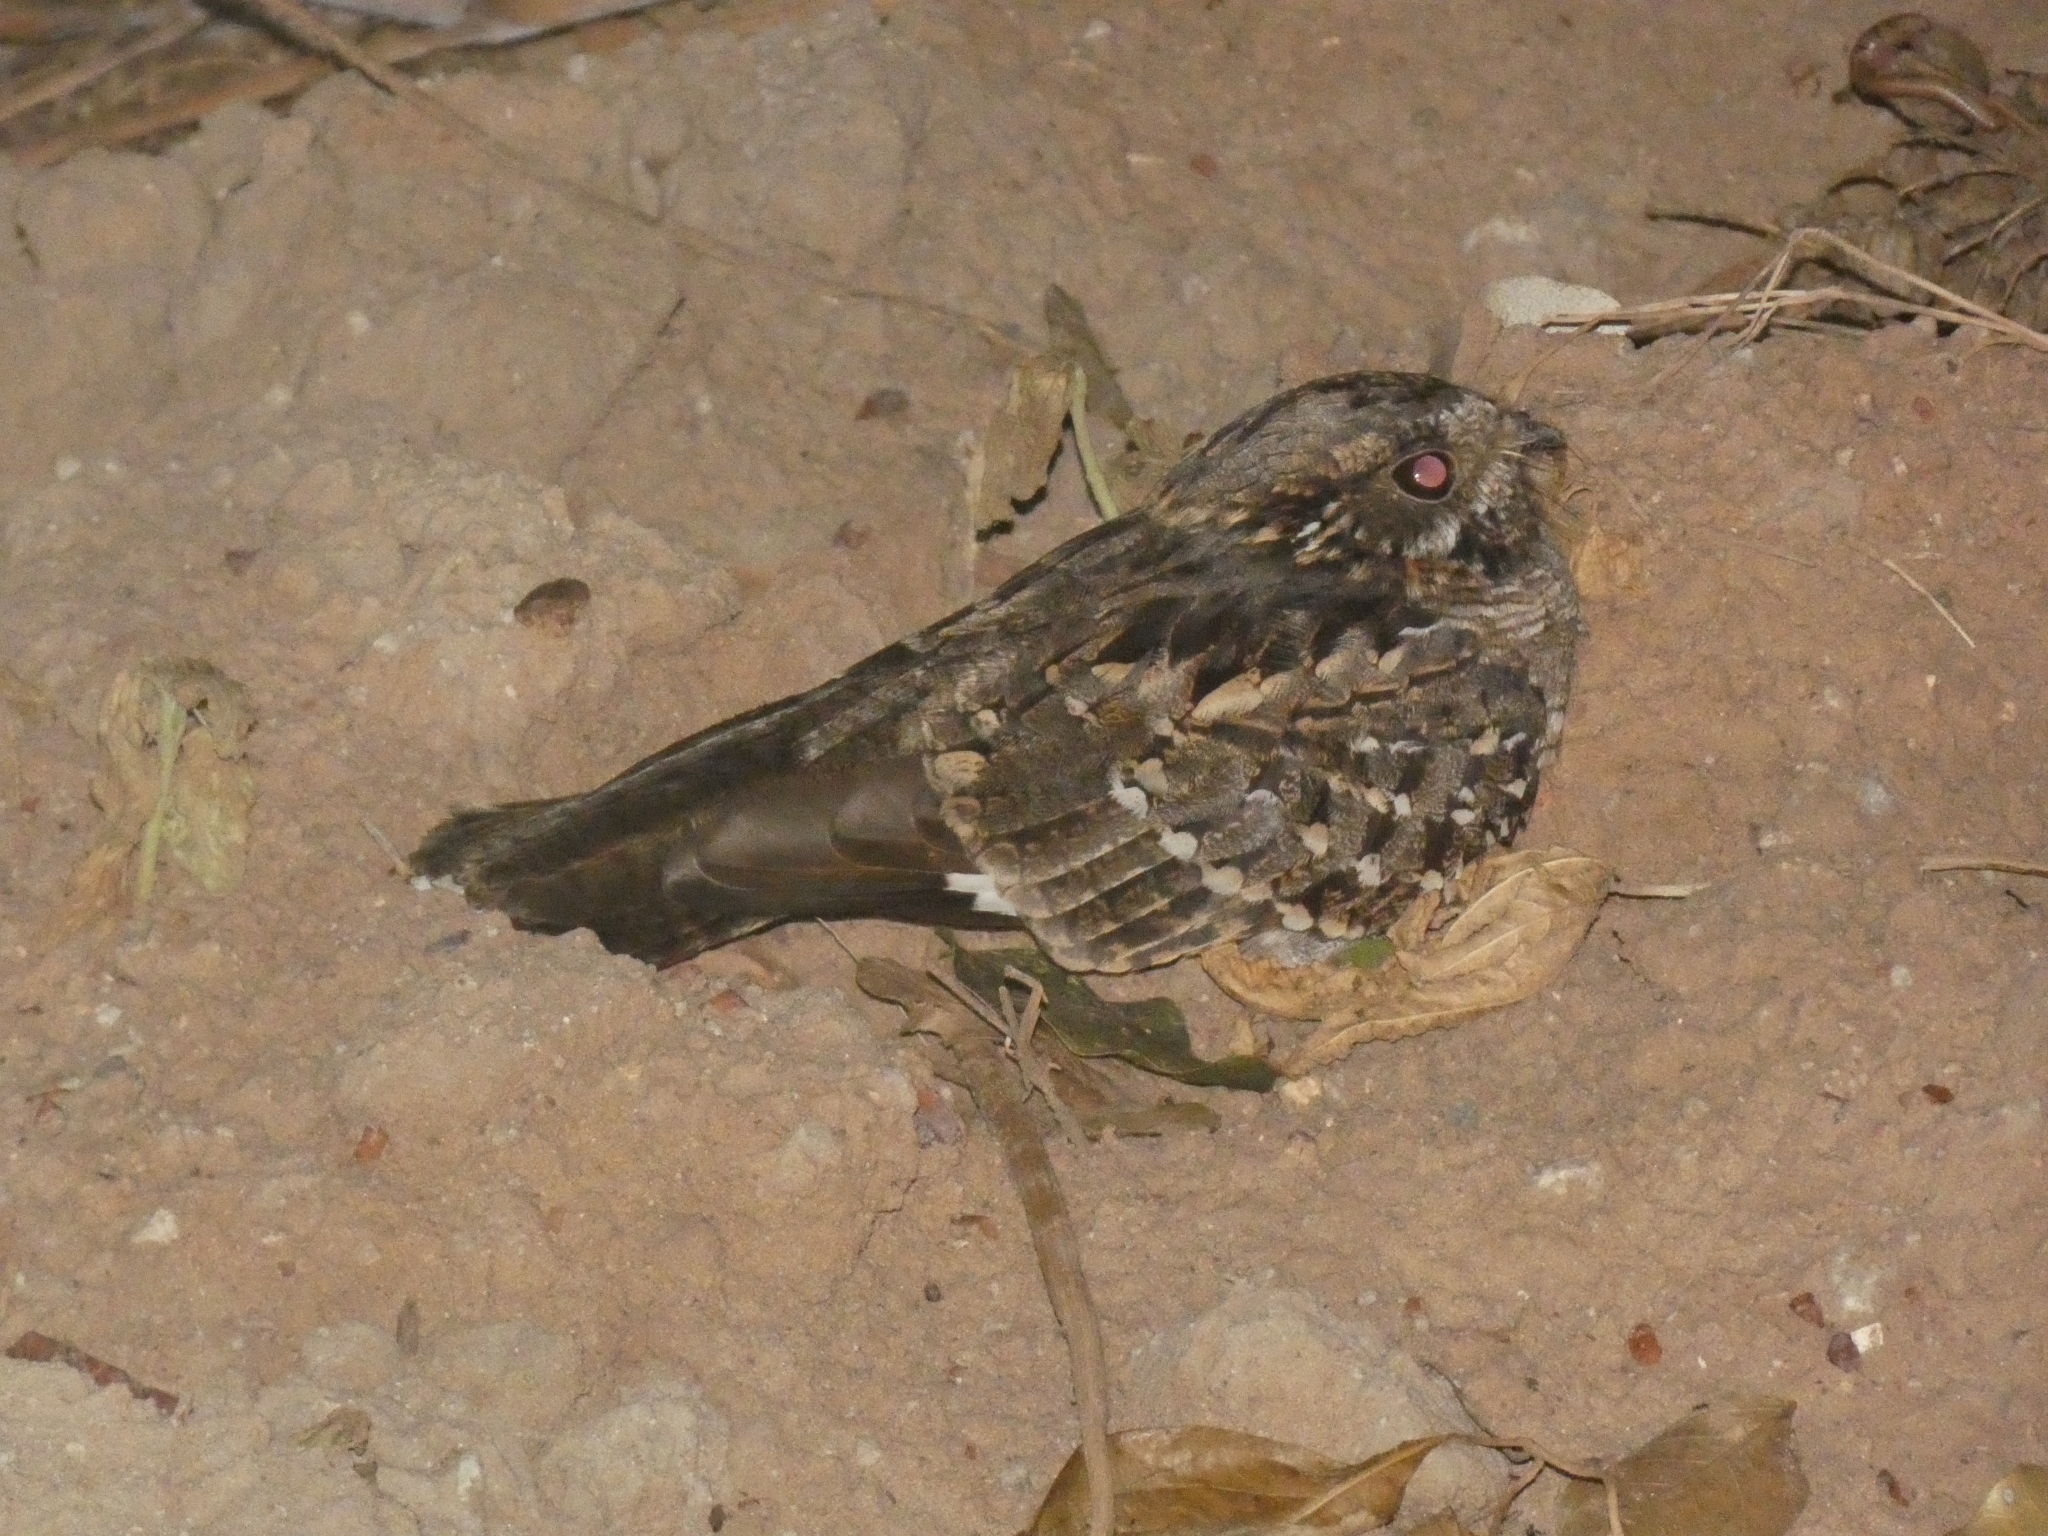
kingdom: Animalia
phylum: Chordata
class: Aves
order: Caprimulgiformes
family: Caprimulgidae
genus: Nyctidromus
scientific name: Nyctidromus albicollis
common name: Pauraque
